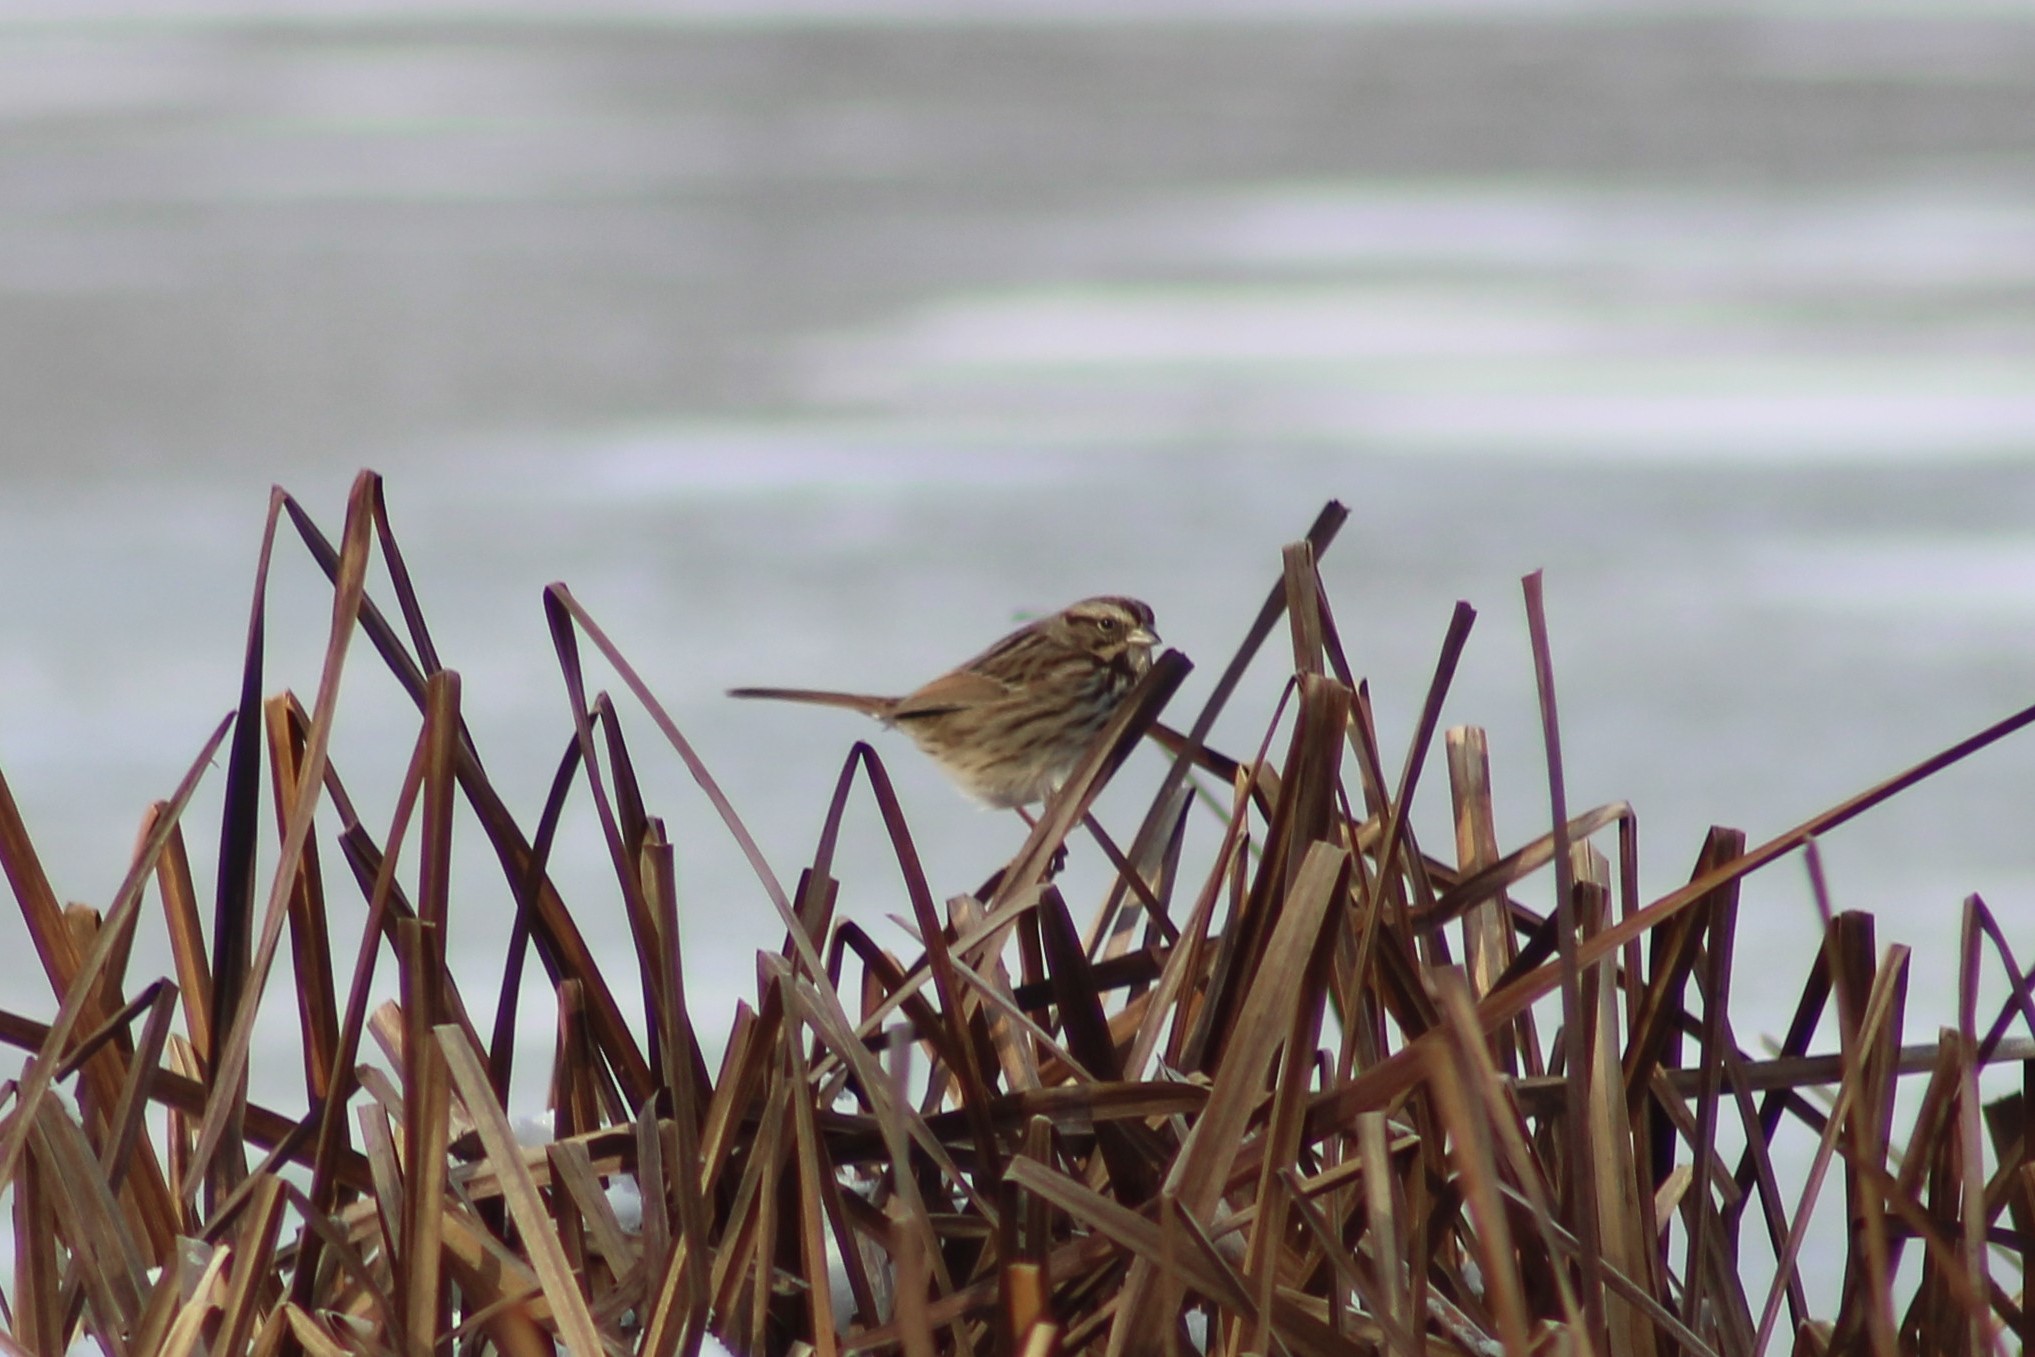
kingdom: Animalia
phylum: Chordata
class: Aves
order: Passeriformes
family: Passerellidae
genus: Melospiza
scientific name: Melospiza melodia
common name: Song sparrow
